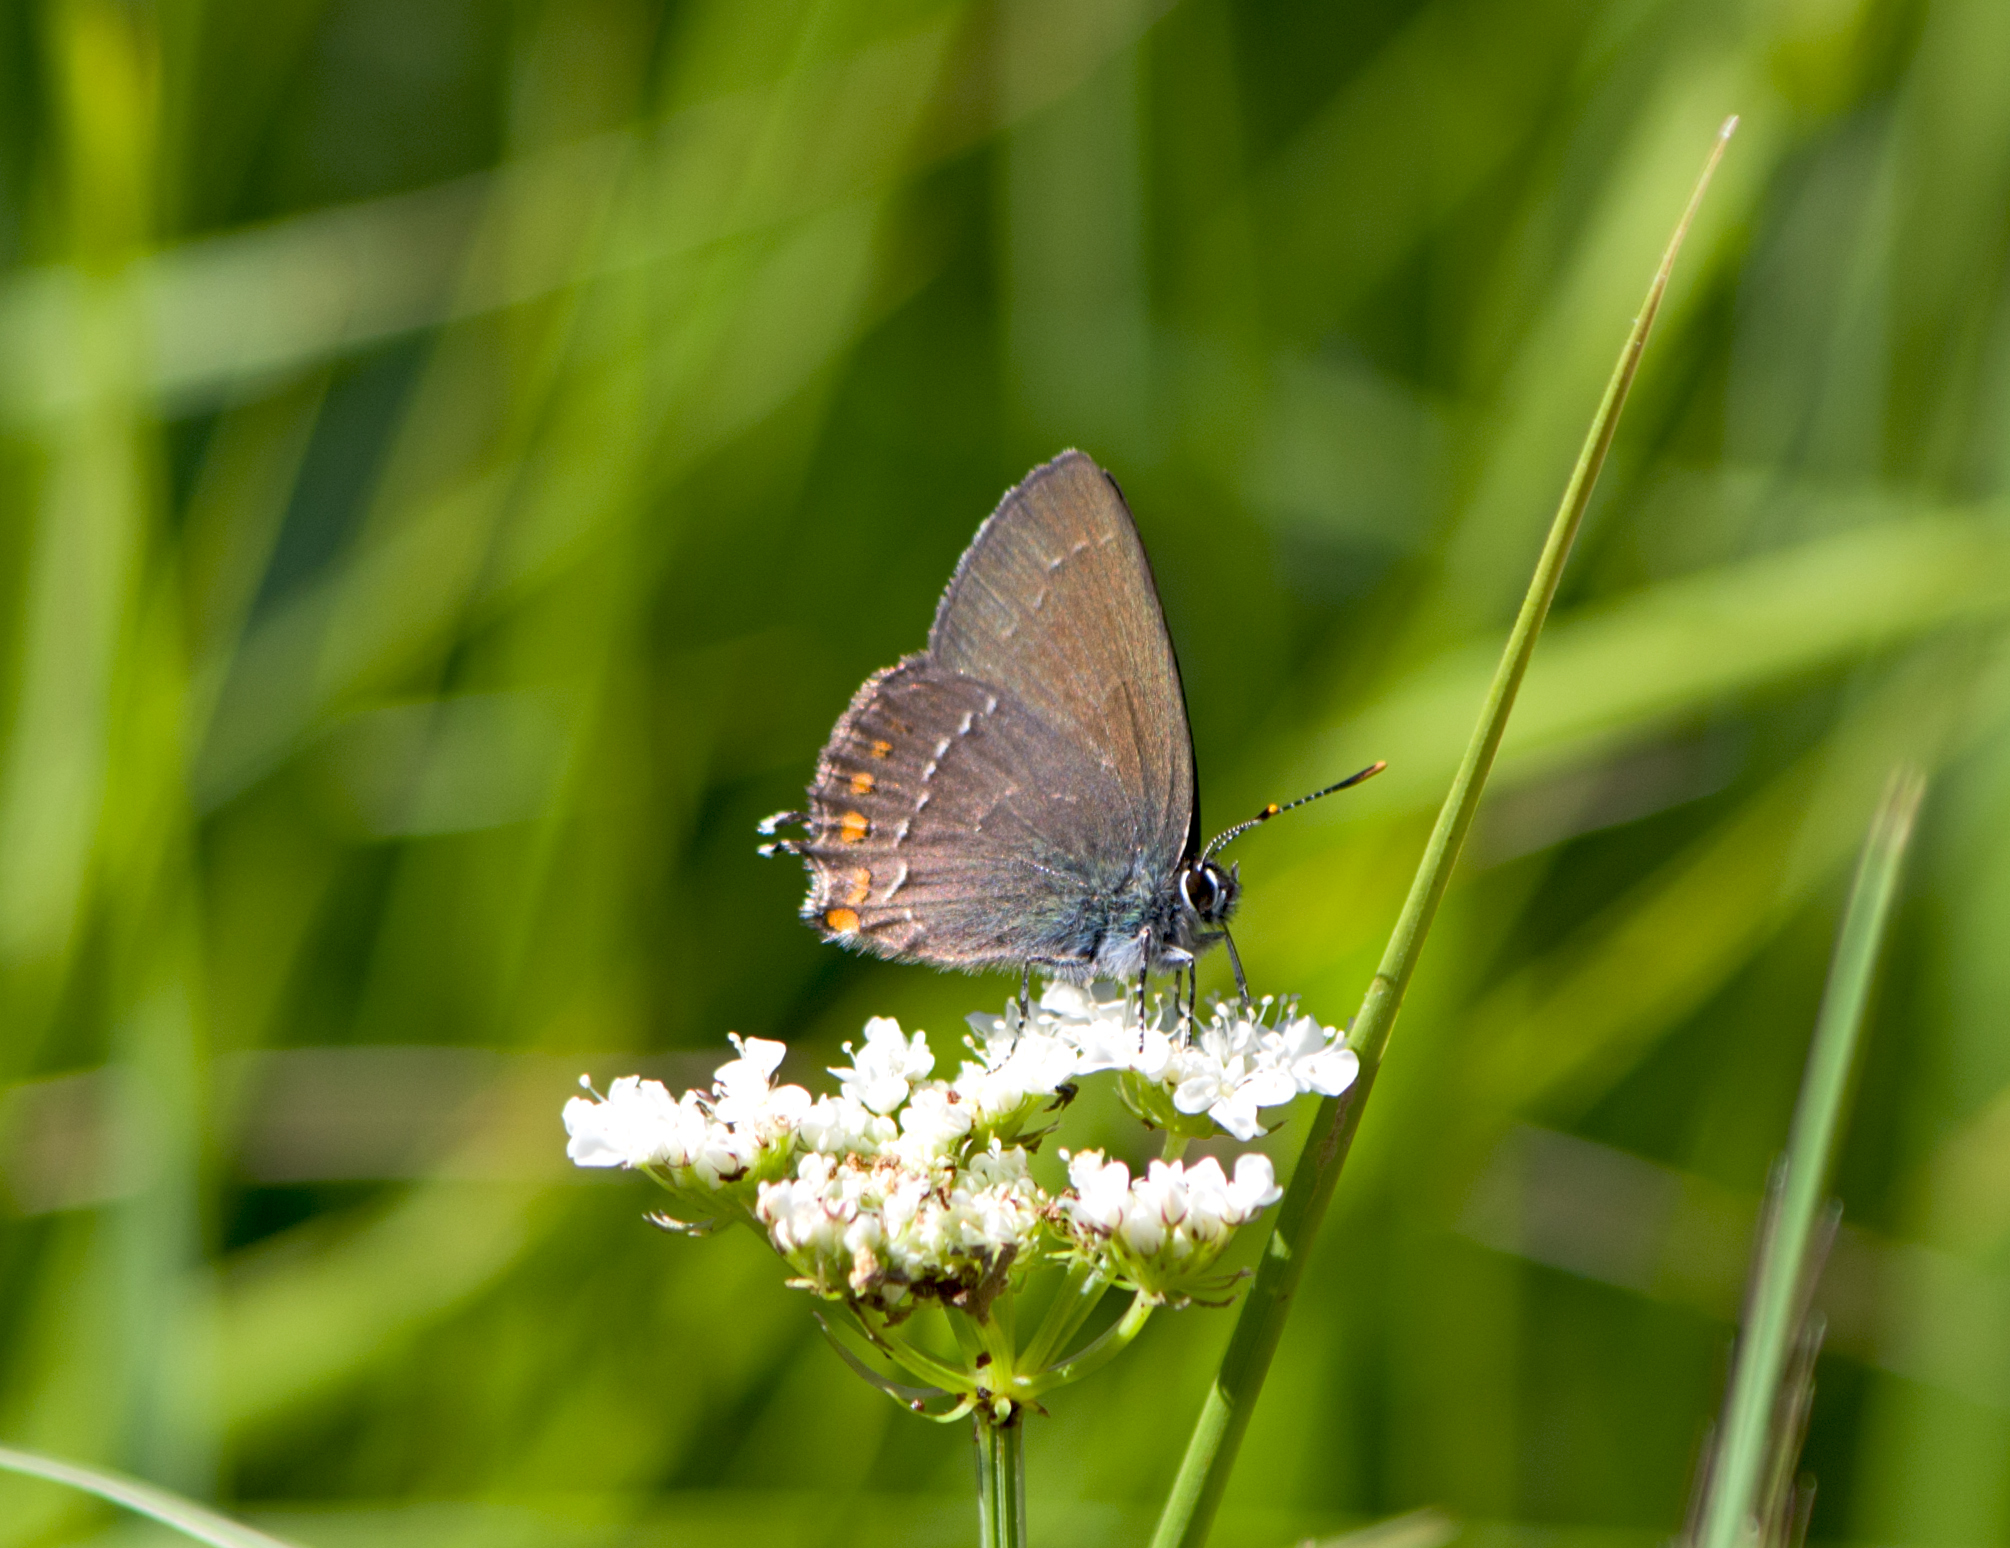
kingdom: Animalia
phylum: Arthropoda
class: Insecta
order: Lepidoptera
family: Lycaenidae
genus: Nordmannia
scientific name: Nordmannia ilicis
